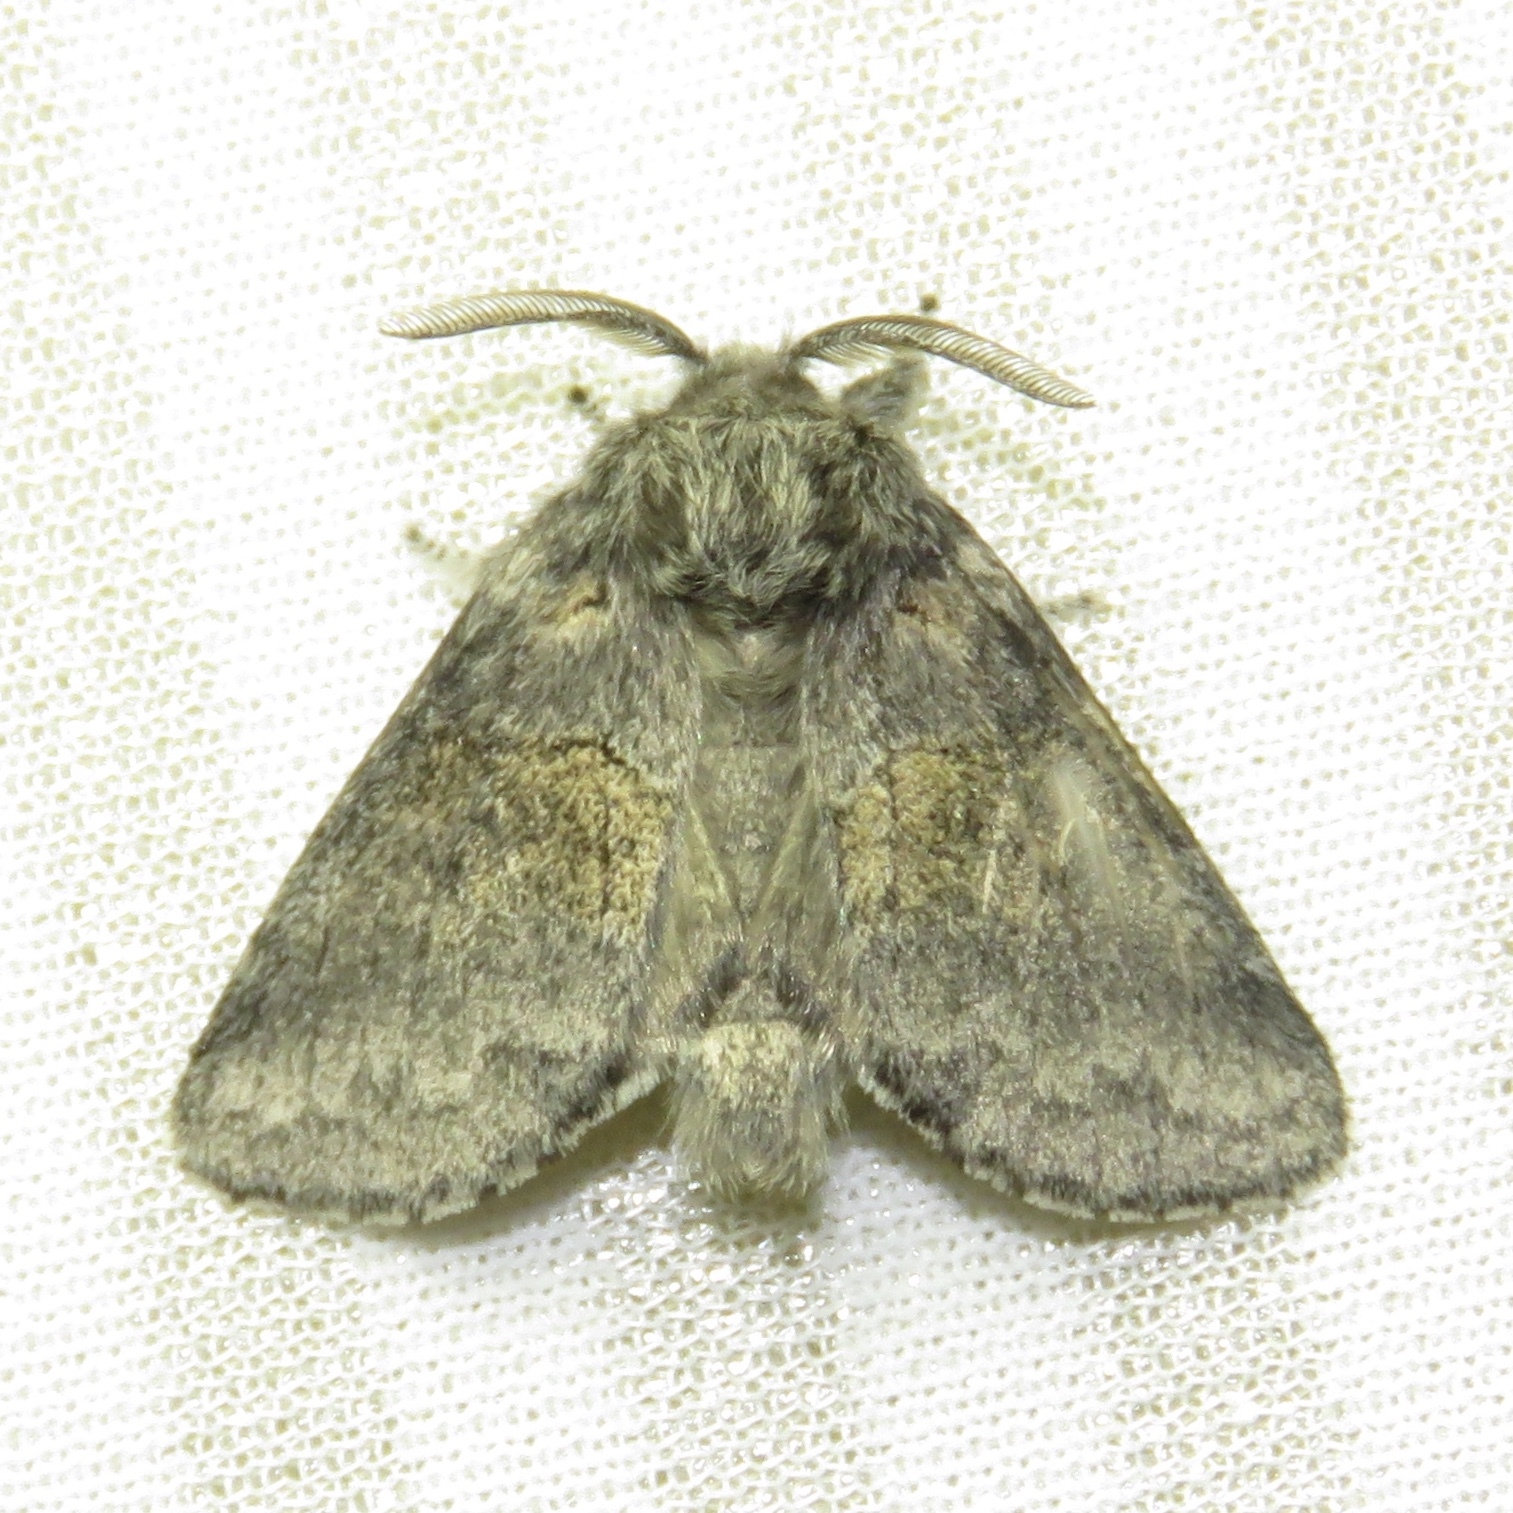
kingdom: Animalia
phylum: Arthropoda
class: Insecta
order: Lepidoptera
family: Notodontidae
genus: Gluphisia
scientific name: Gluphisia septentrionis
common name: Common gluphisia
